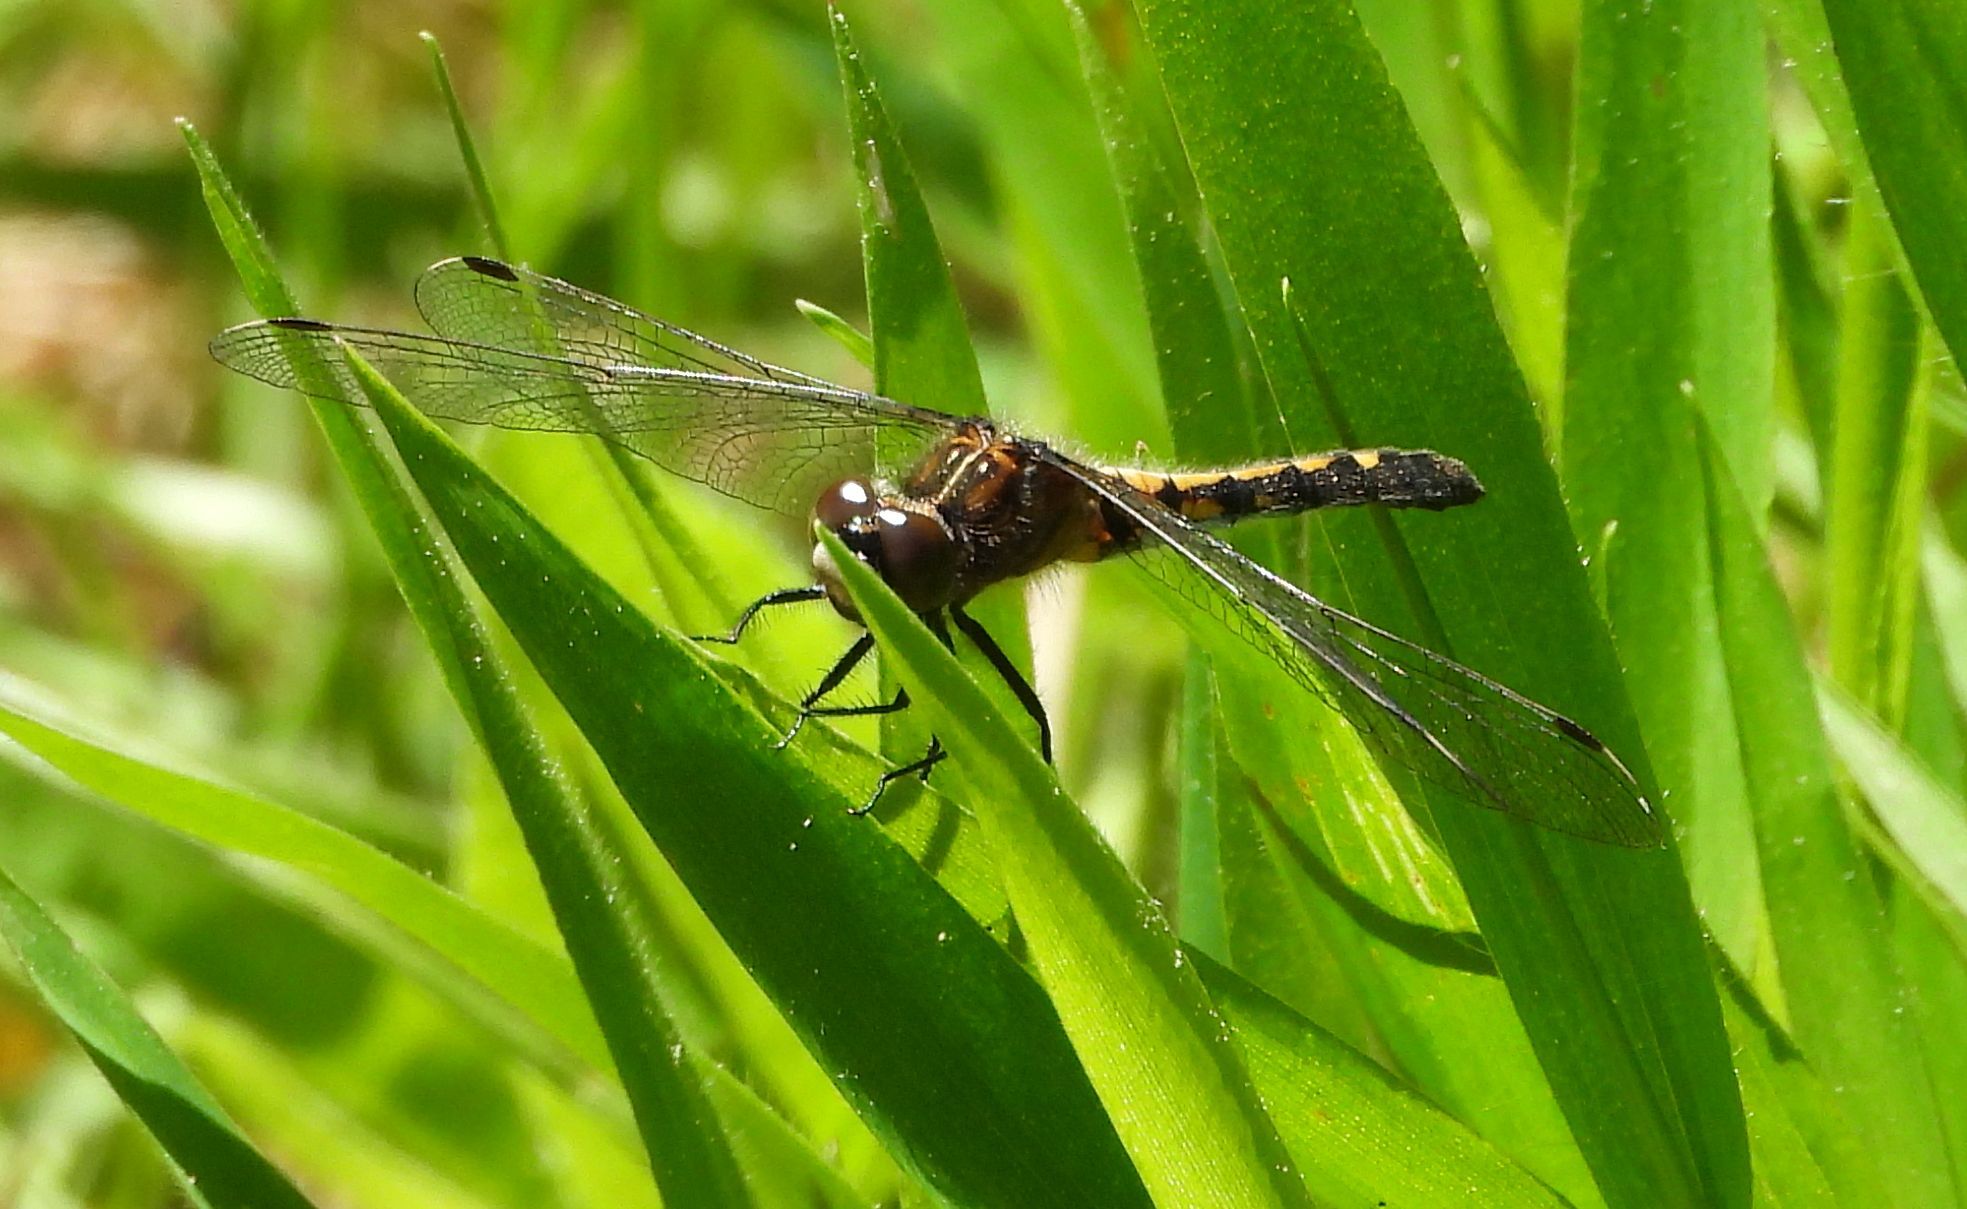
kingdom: Animalia
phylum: Arthropoda
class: Insecta
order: Odonata
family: Libellulidae
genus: Leucorrhinia
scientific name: Leucorrhinia intacta
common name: Dot-tailed whiteface
